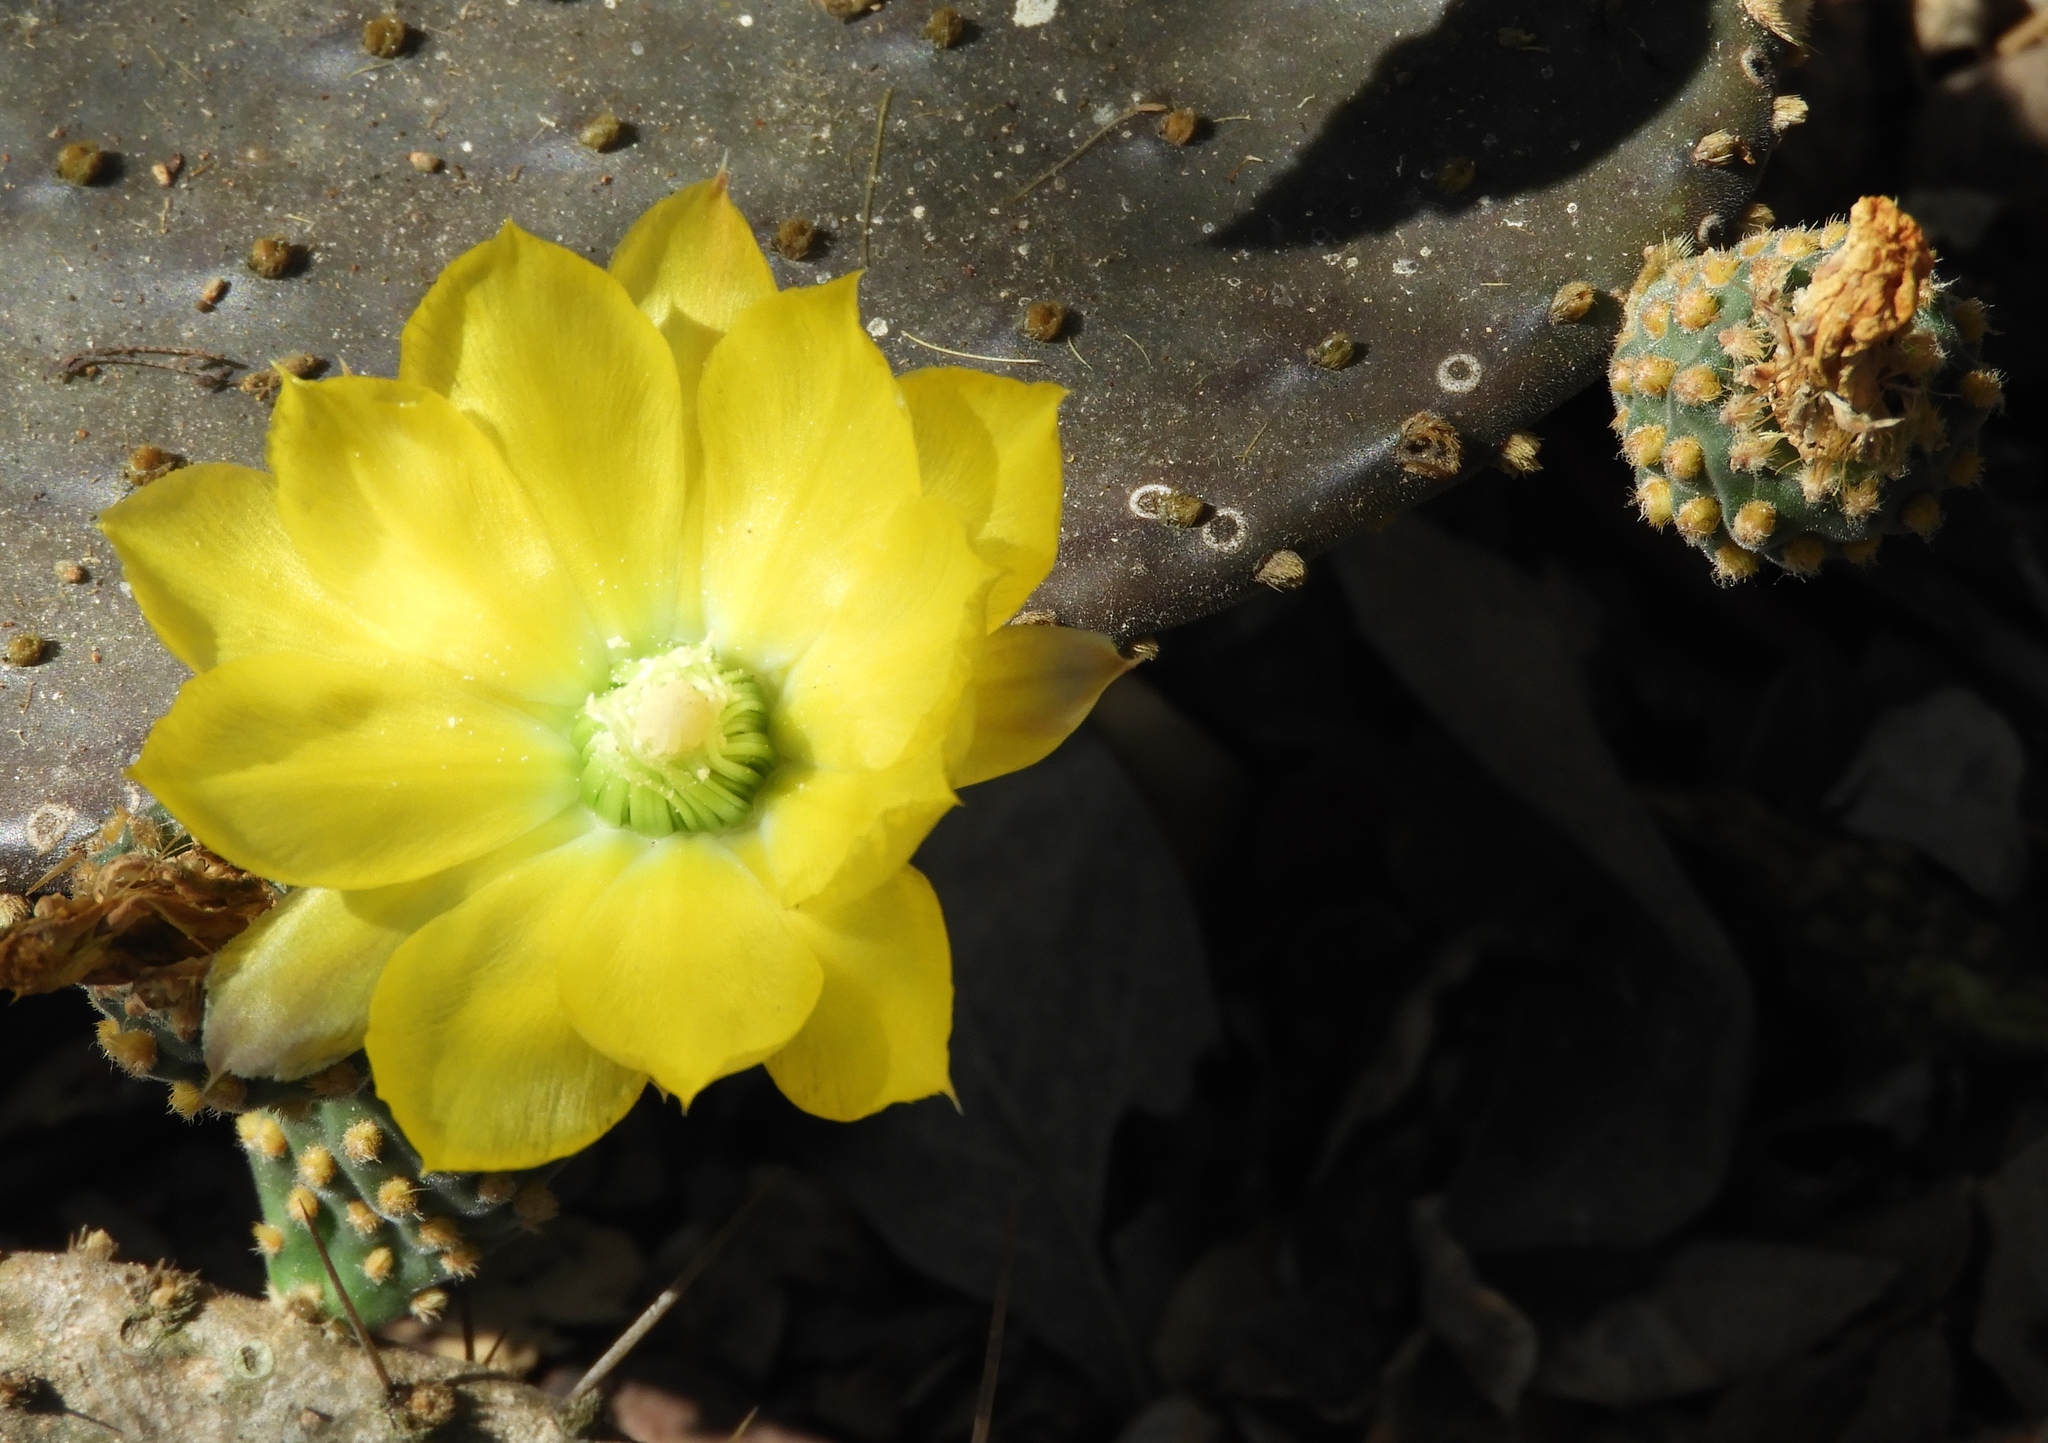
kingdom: Plantae
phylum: Tracheophyta
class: Magnoliopsida
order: Caryophyllales
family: Cactaceae
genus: Opuntia
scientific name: Opuntia decumbens
